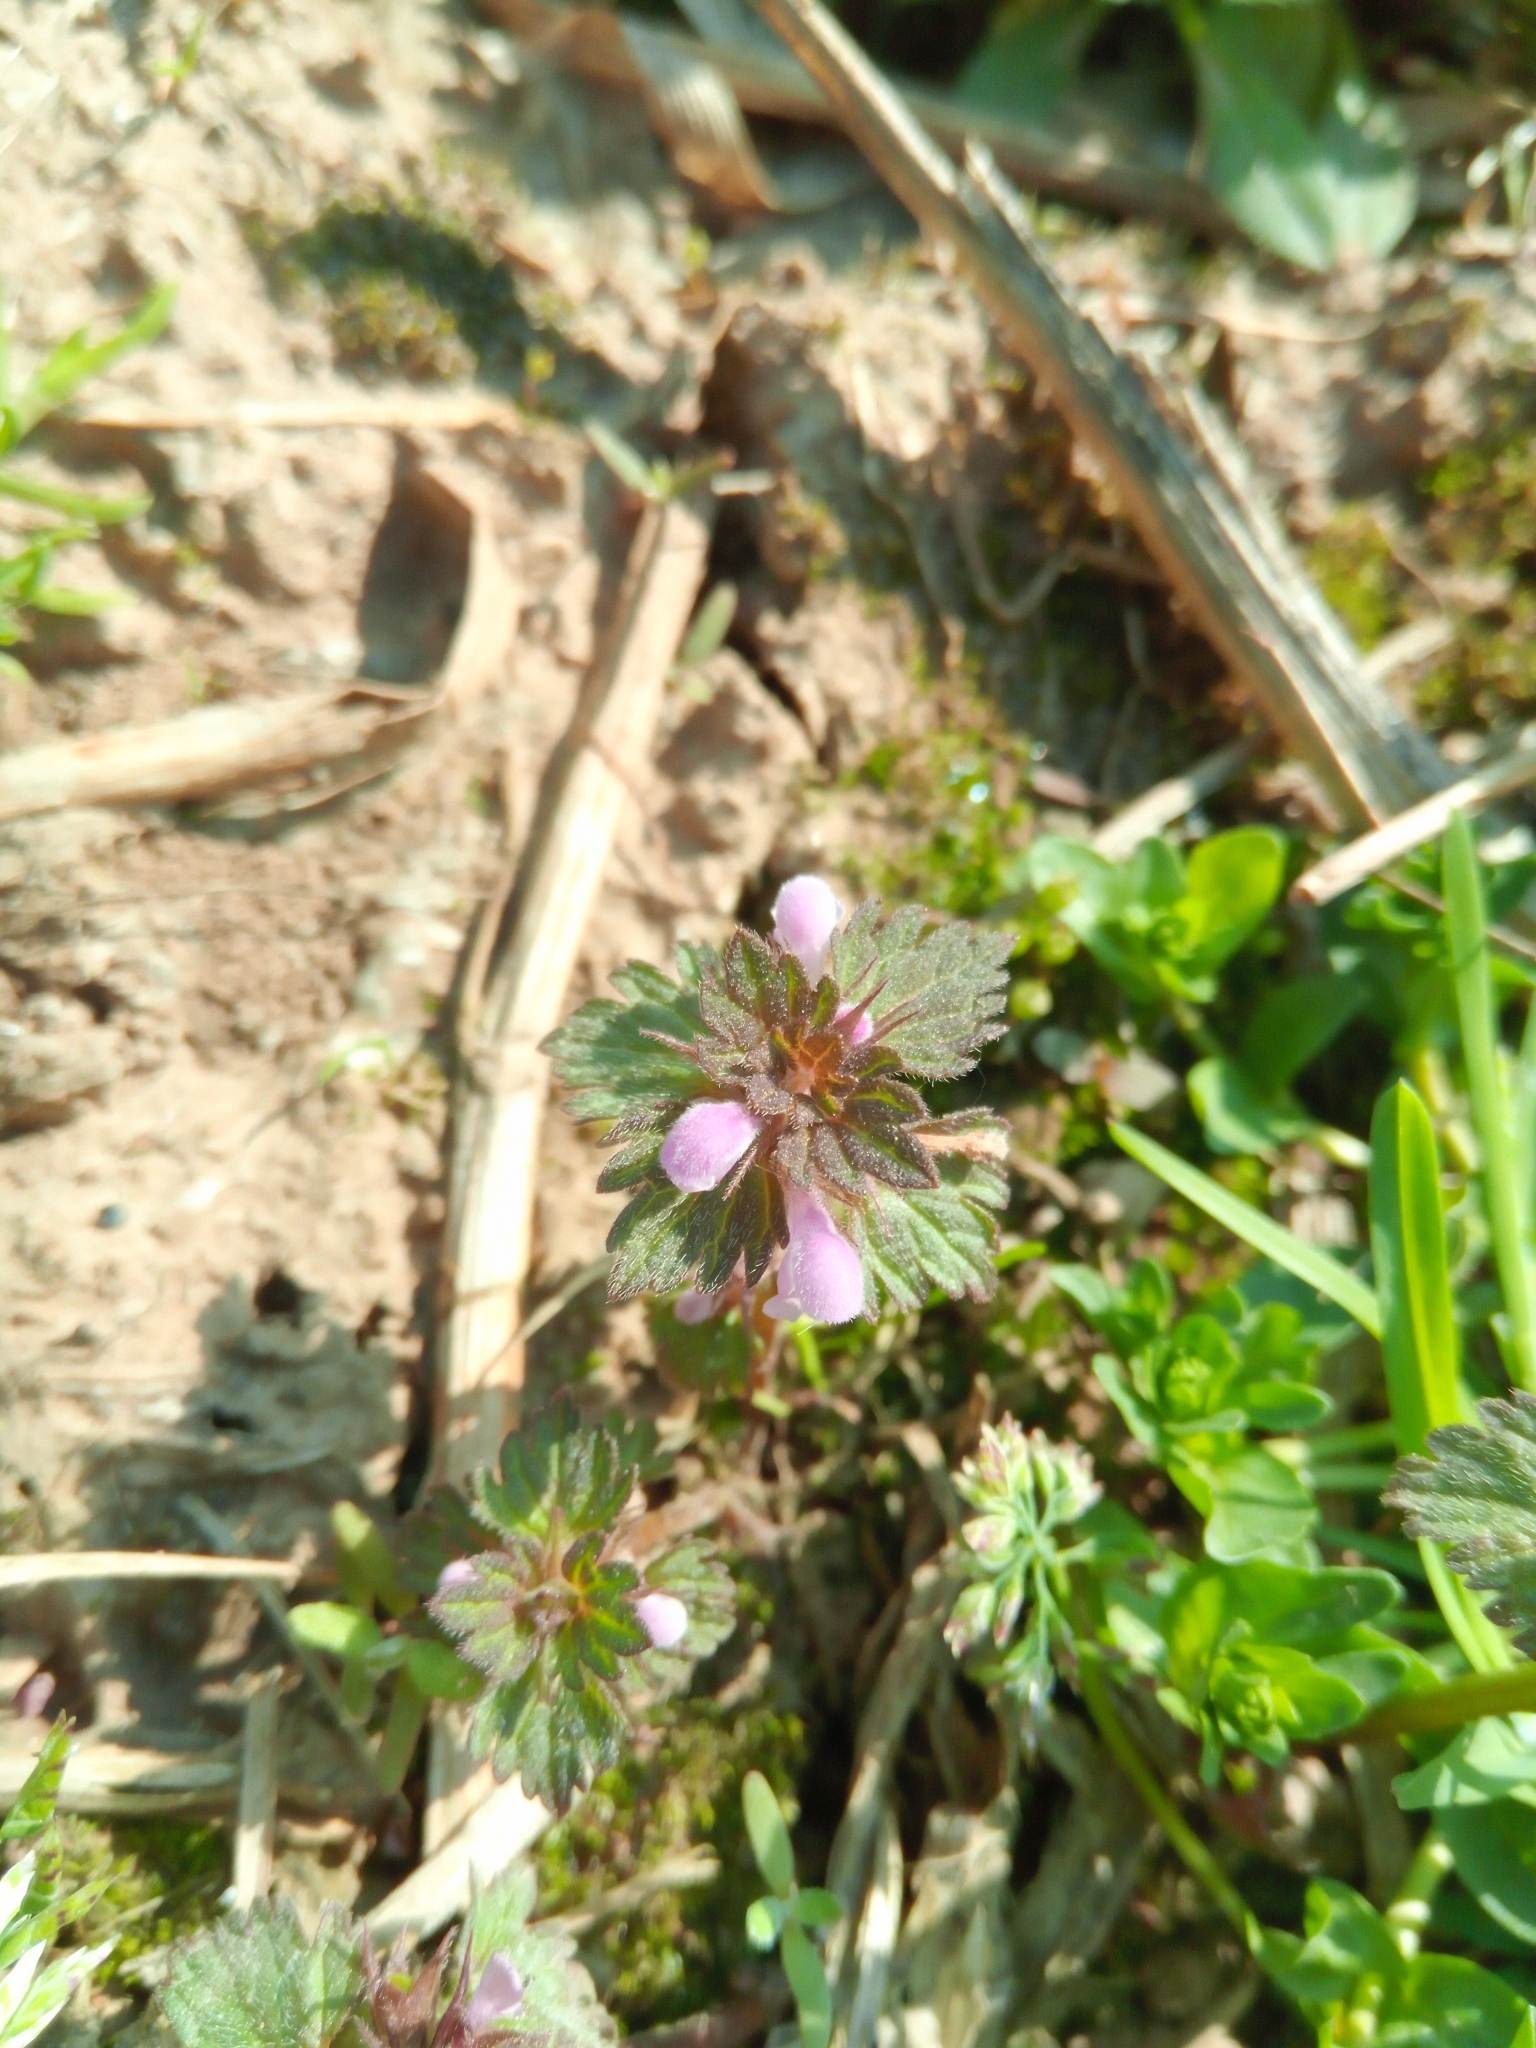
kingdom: Plantae
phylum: Tracheophyta
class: Magnoliopsida
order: Lamiales
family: Lamiaceae
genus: Lamium
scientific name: Lamium purpureum
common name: Red dead-nettle
